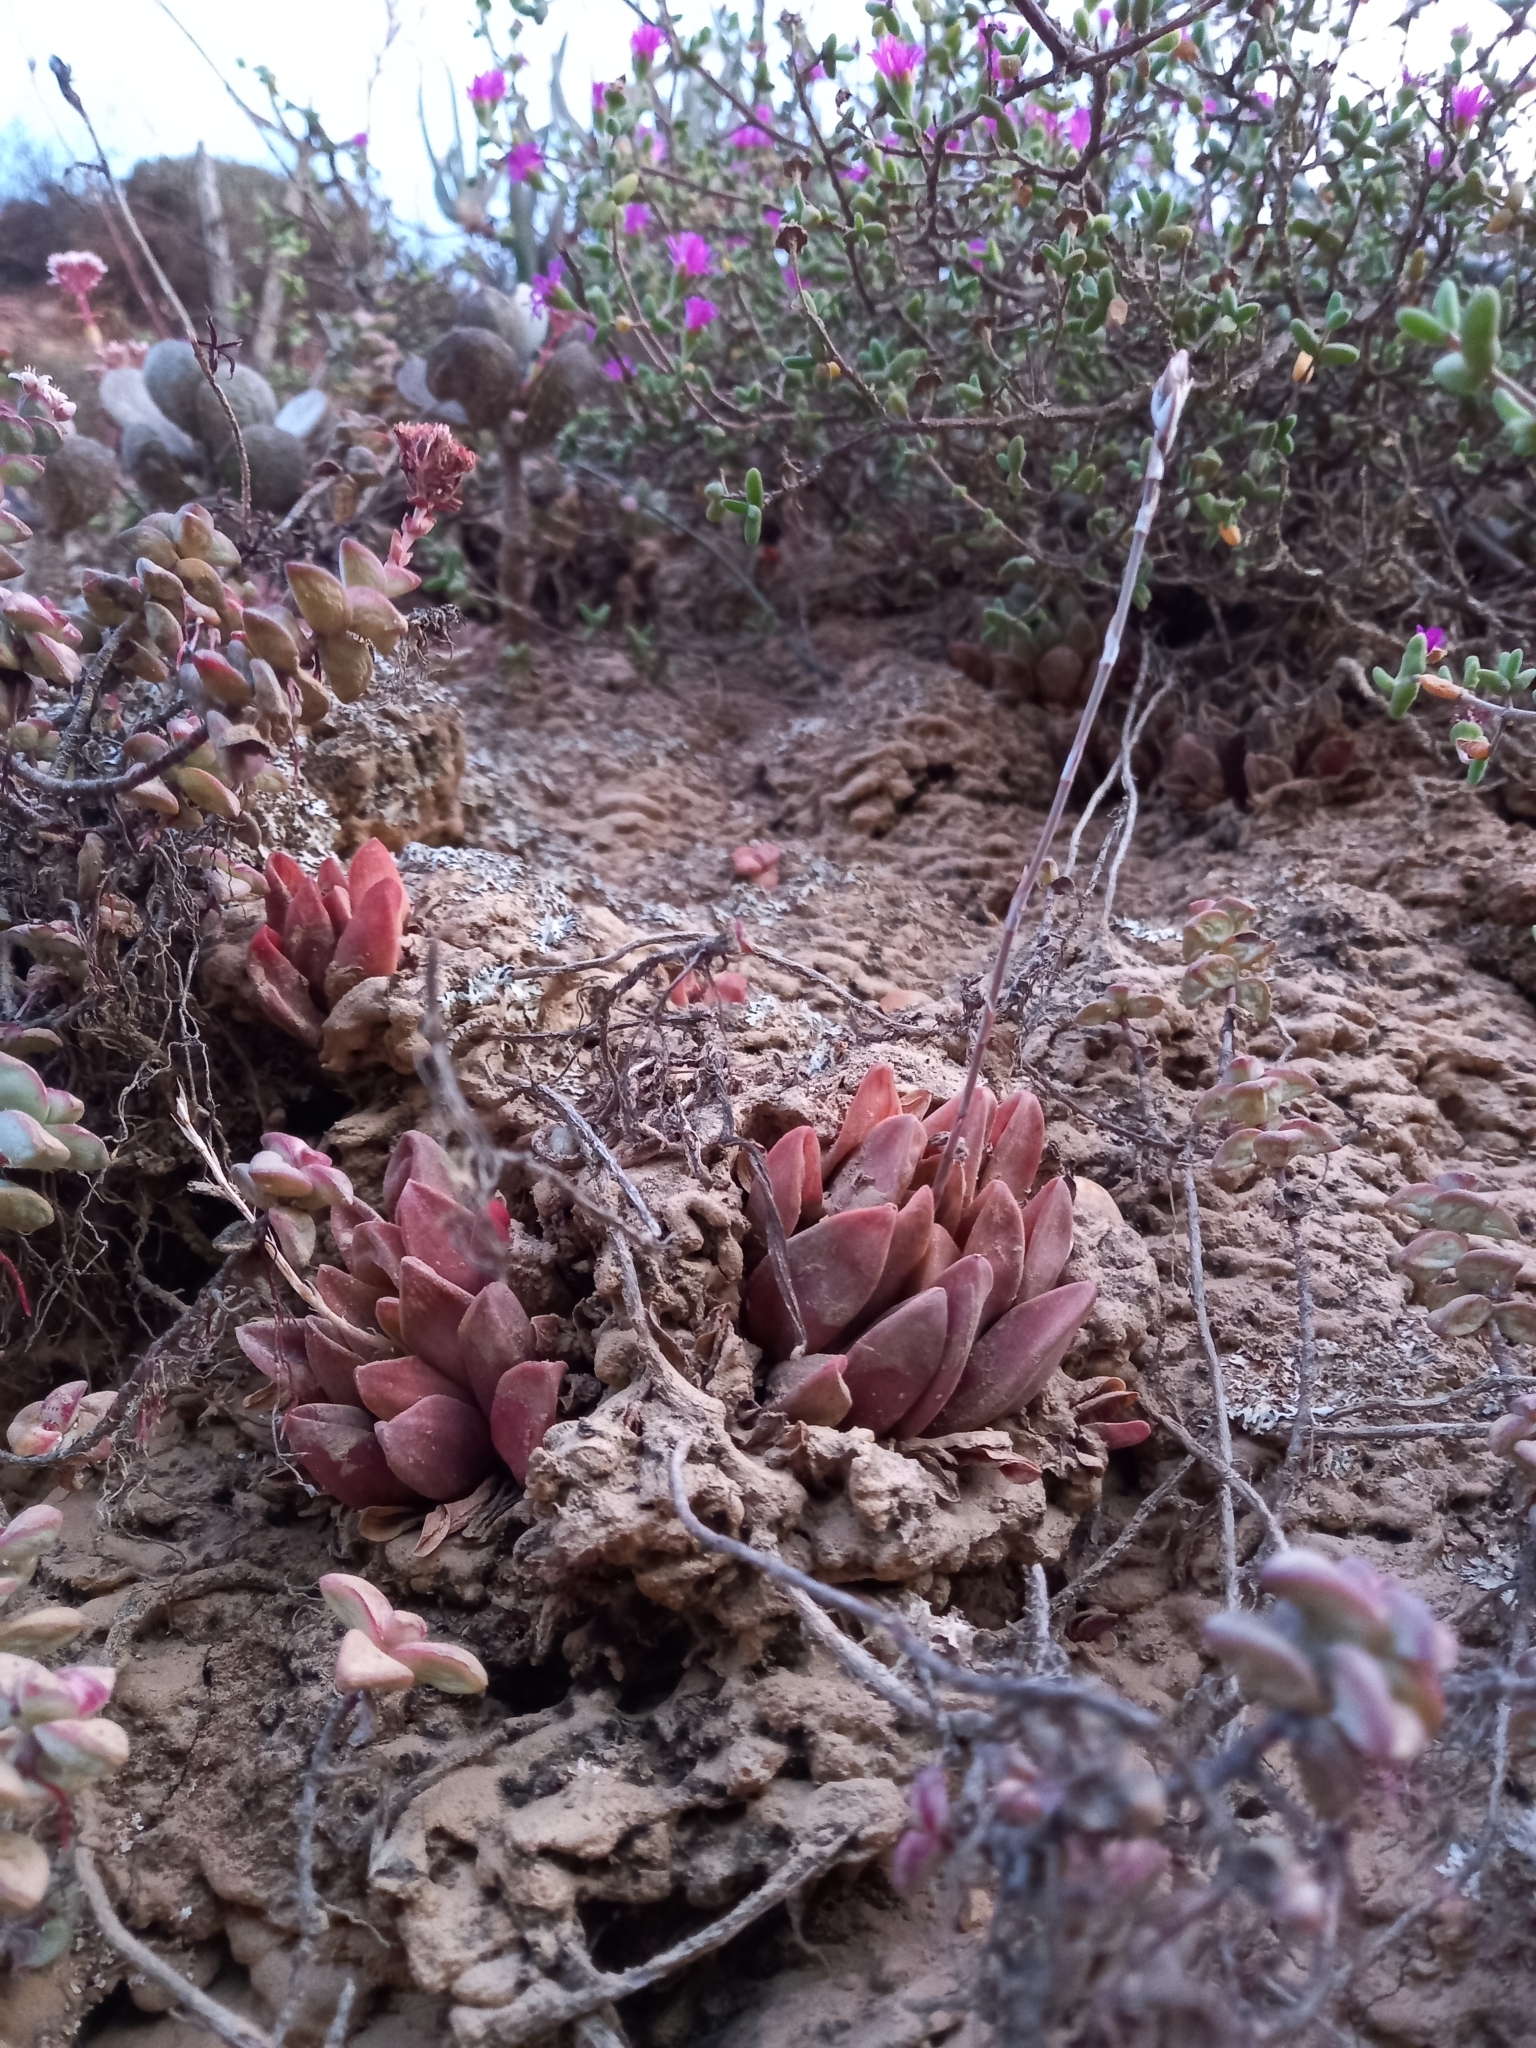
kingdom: Plantae
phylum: Tracheophyta
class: Liliopsida
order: Asparagales
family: Asphodelaceae
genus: Haworthia
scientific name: Haworthia turgida
